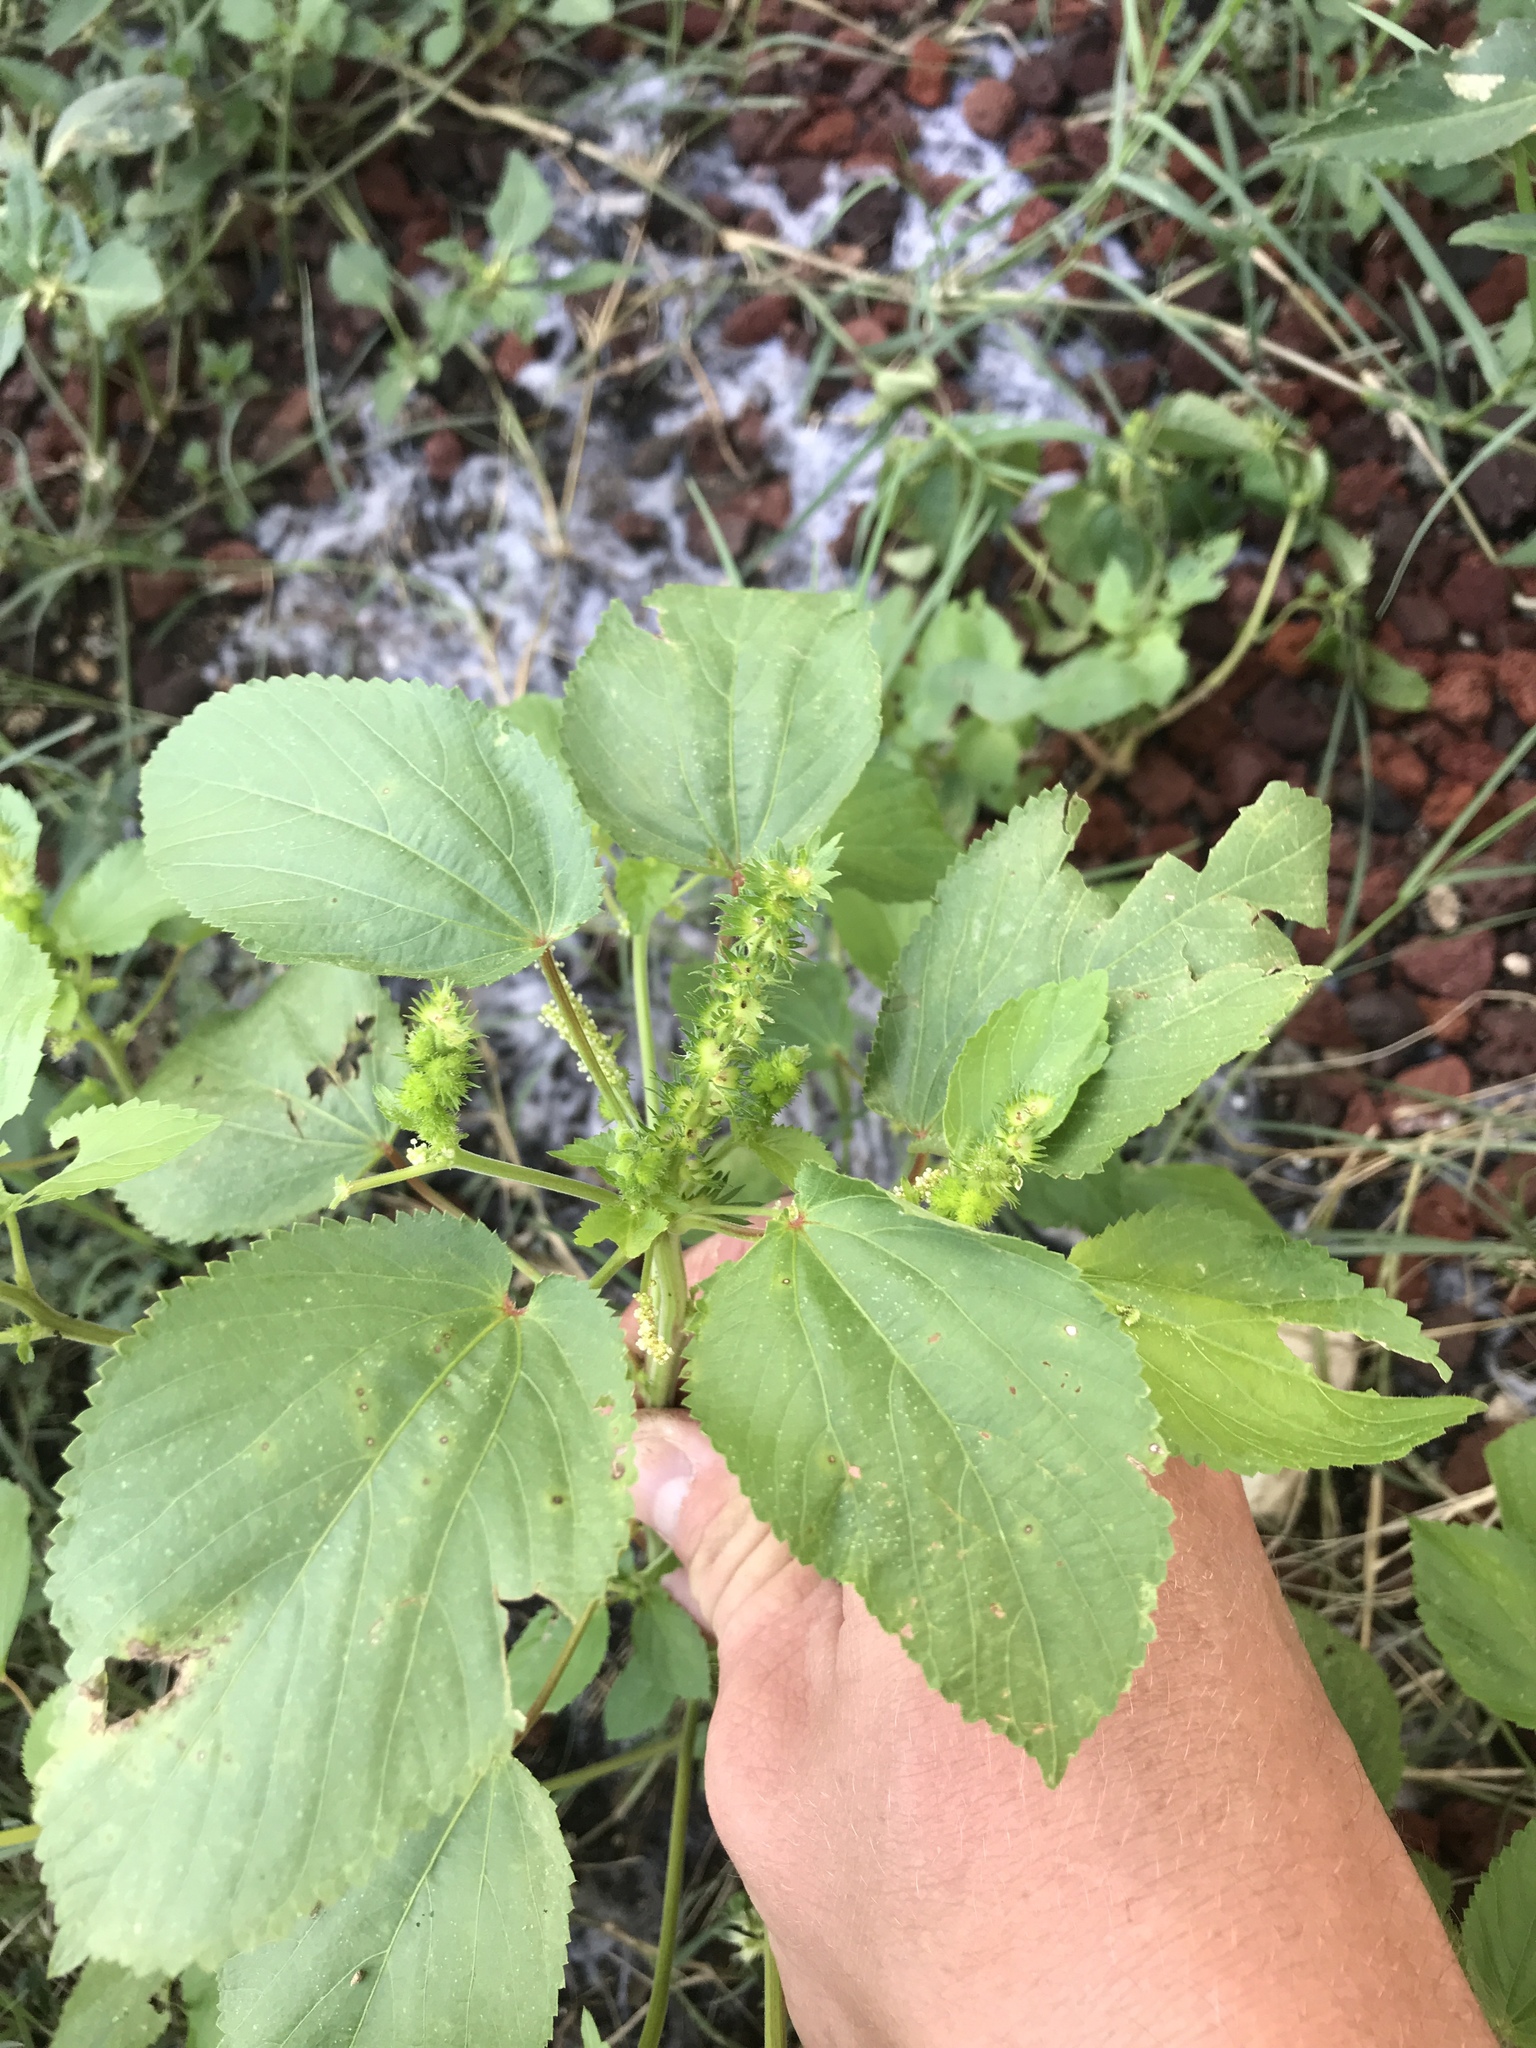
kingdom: Plantae
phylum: Tracheophyta
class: Magnoliopsida
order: Malpighiales
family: Euphorbiaceae
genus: Acalypha
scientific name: Acalypha ostryifolia
